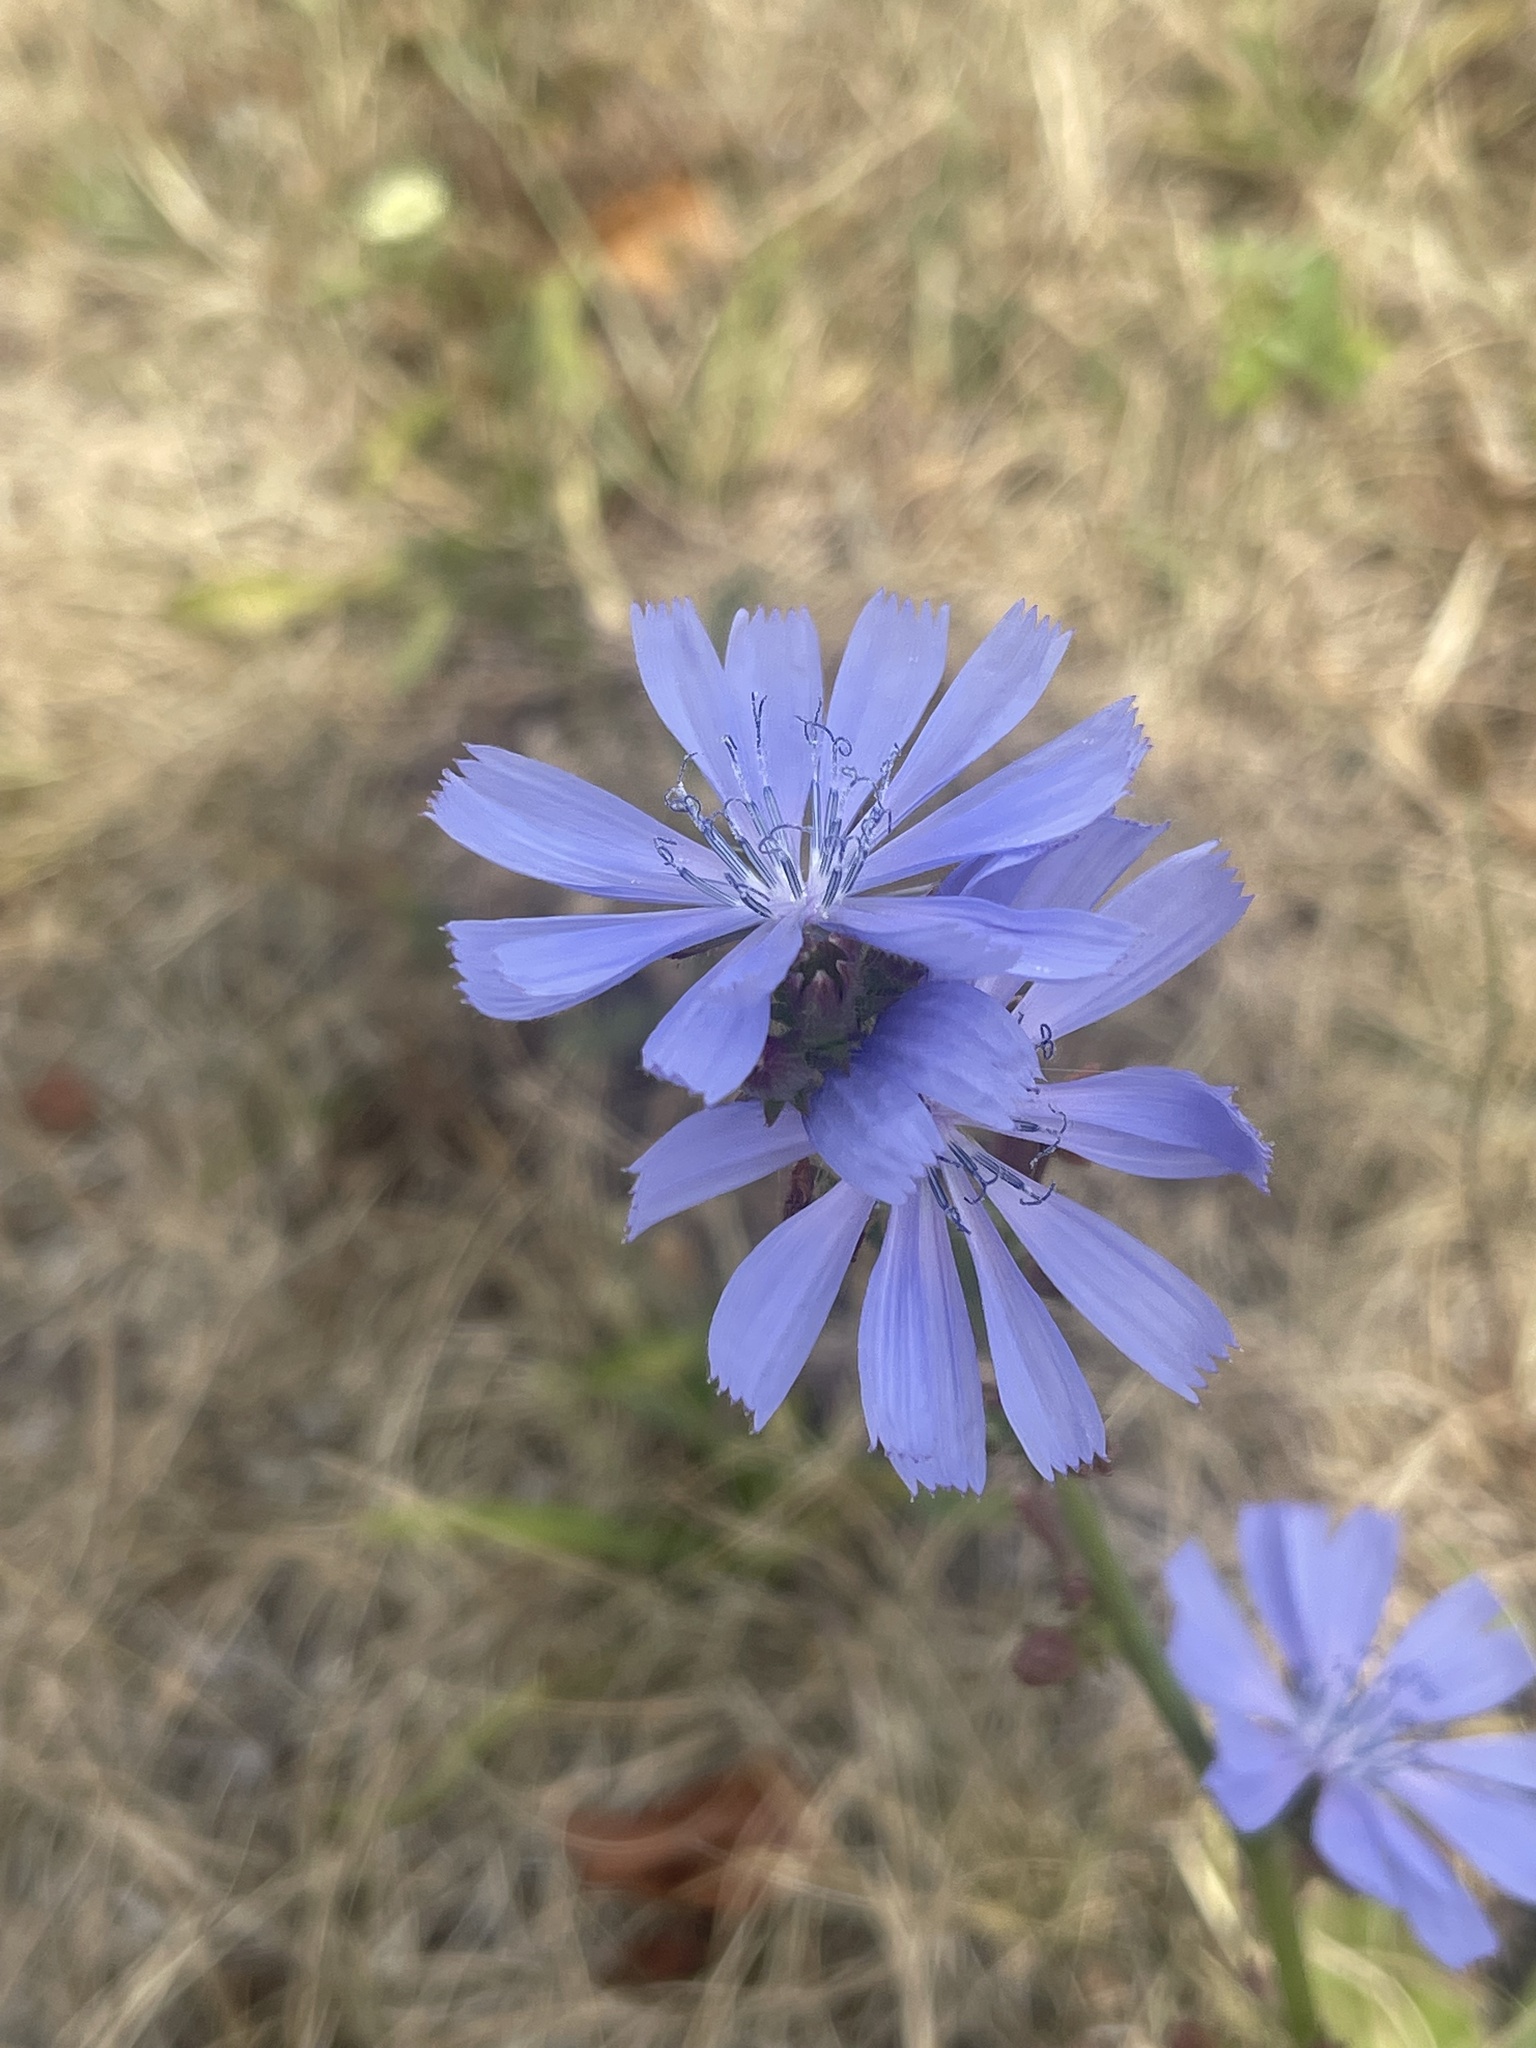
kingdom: Plantae
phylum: Tracheophyta
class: Magnoliopsida
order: Asterales
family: Asteraceae
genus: Cichorium
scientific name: Cichorium intybus
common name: Chicory
